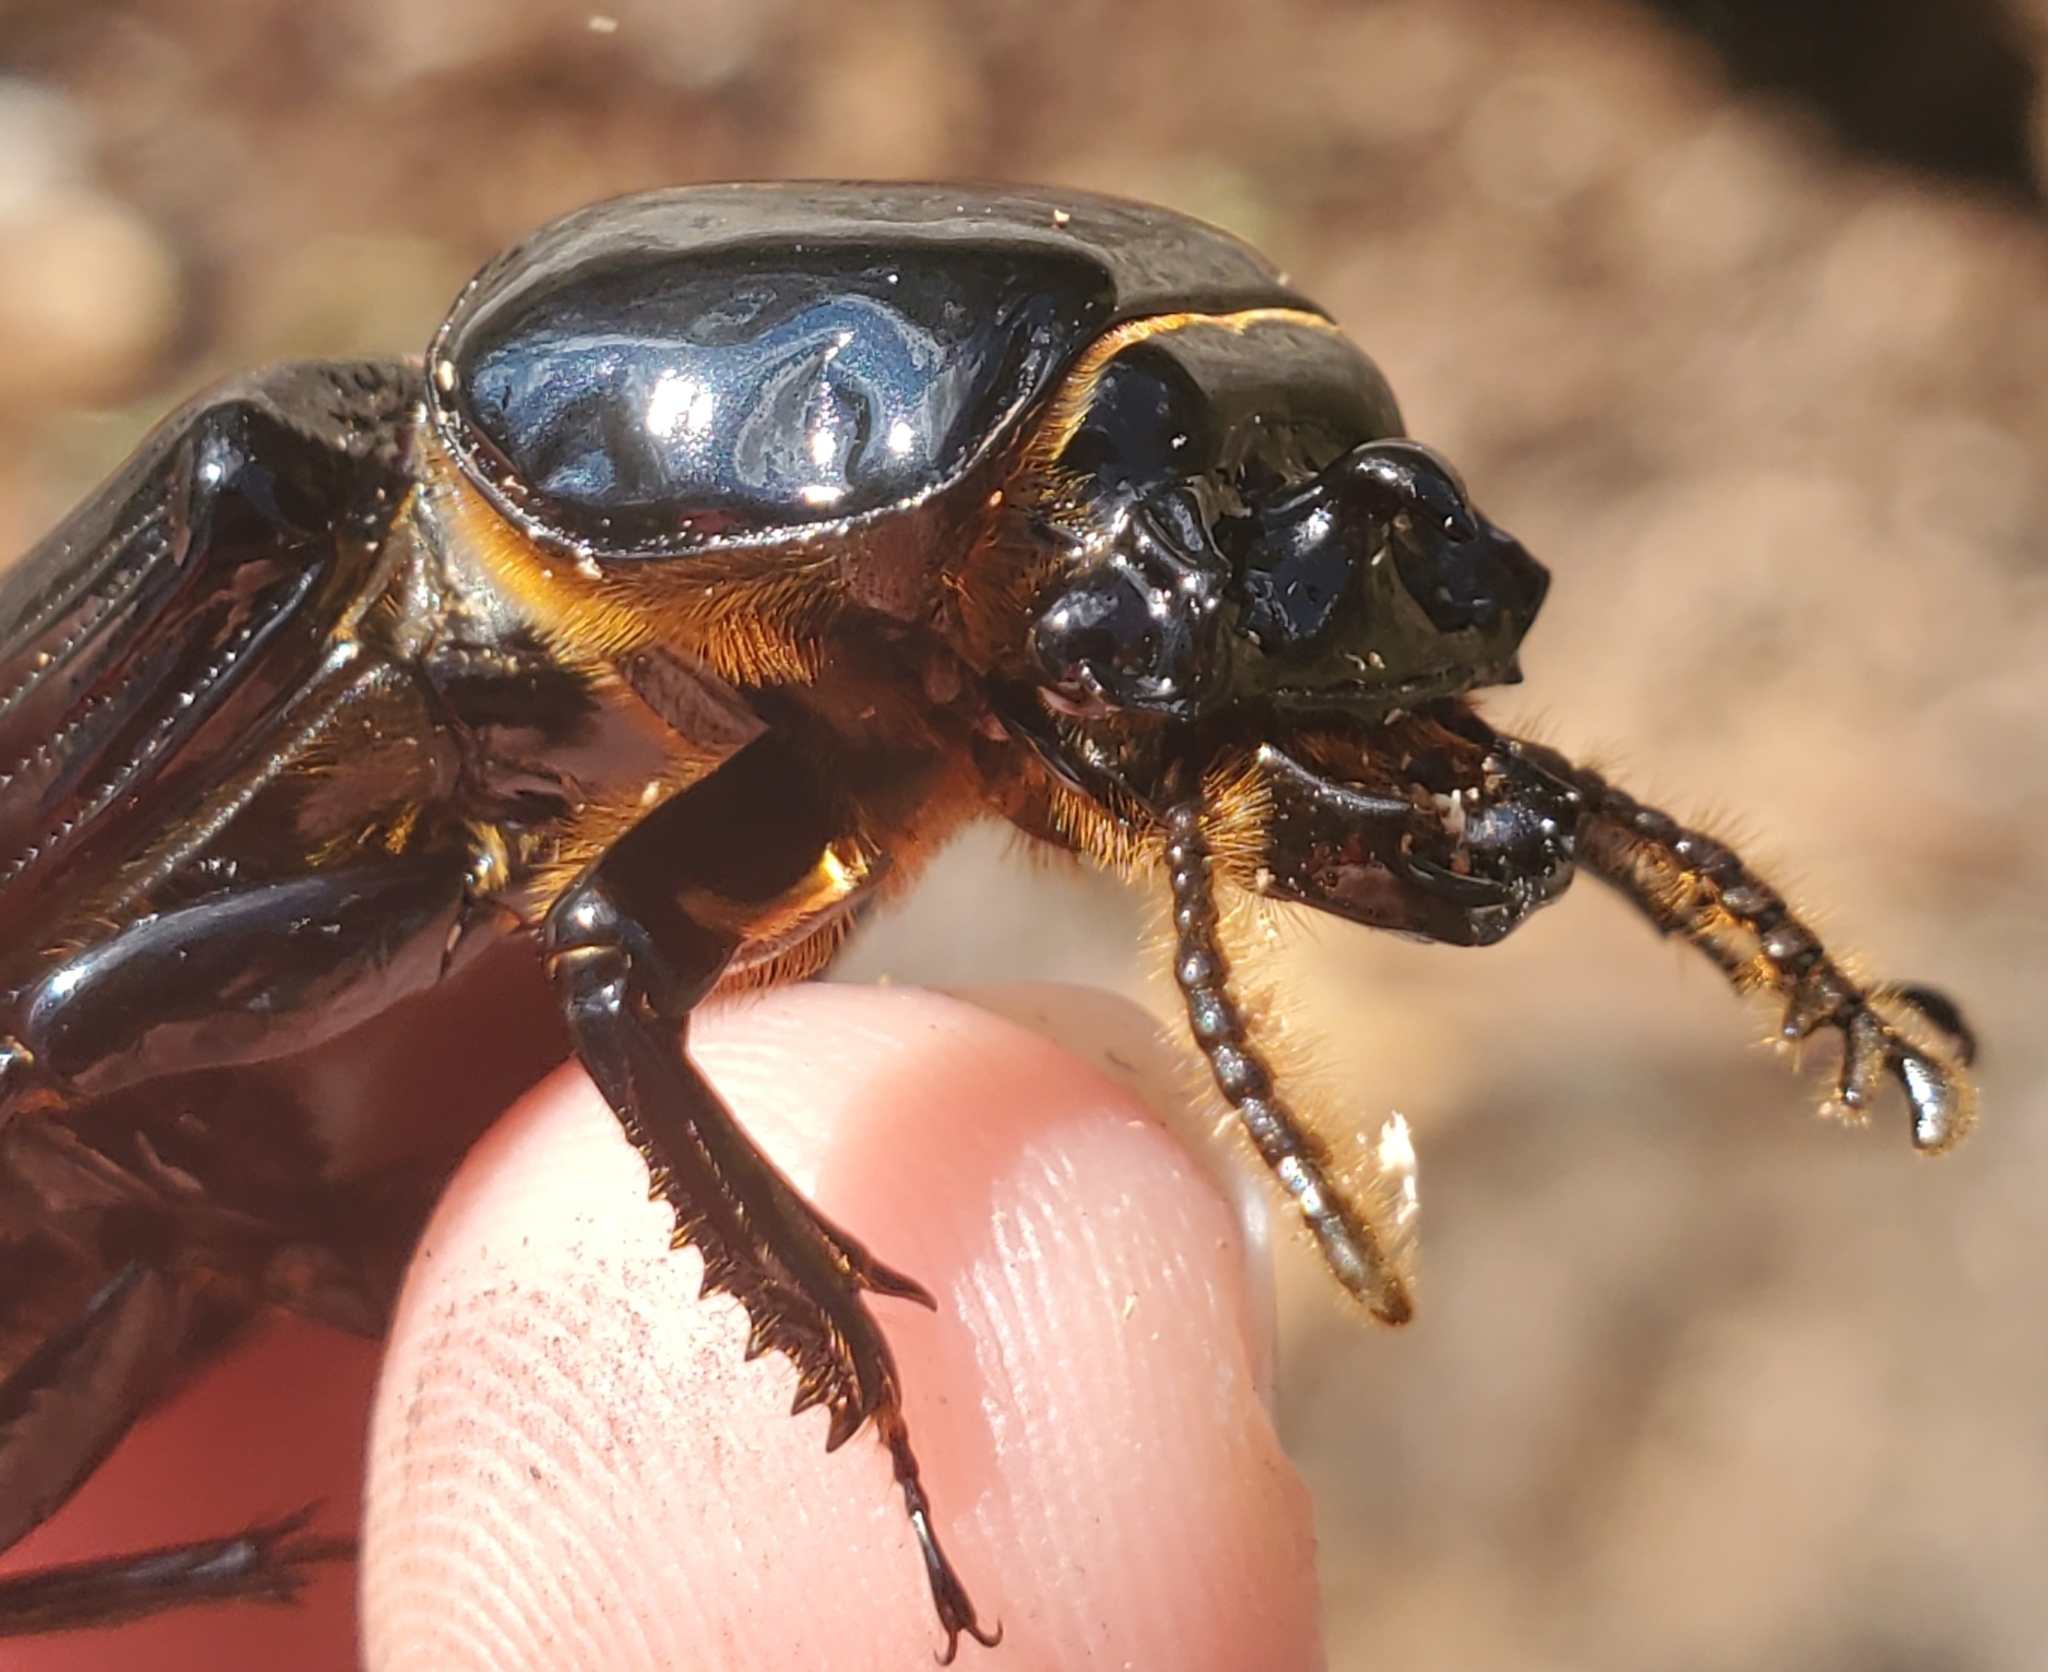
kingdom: Animalia
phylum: Arthropoda
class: Insecta
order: Coleoptera
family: Passalidae
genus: Odontotaenius
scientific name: Odontotaenius disjunctus
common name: Patent leather beetle
